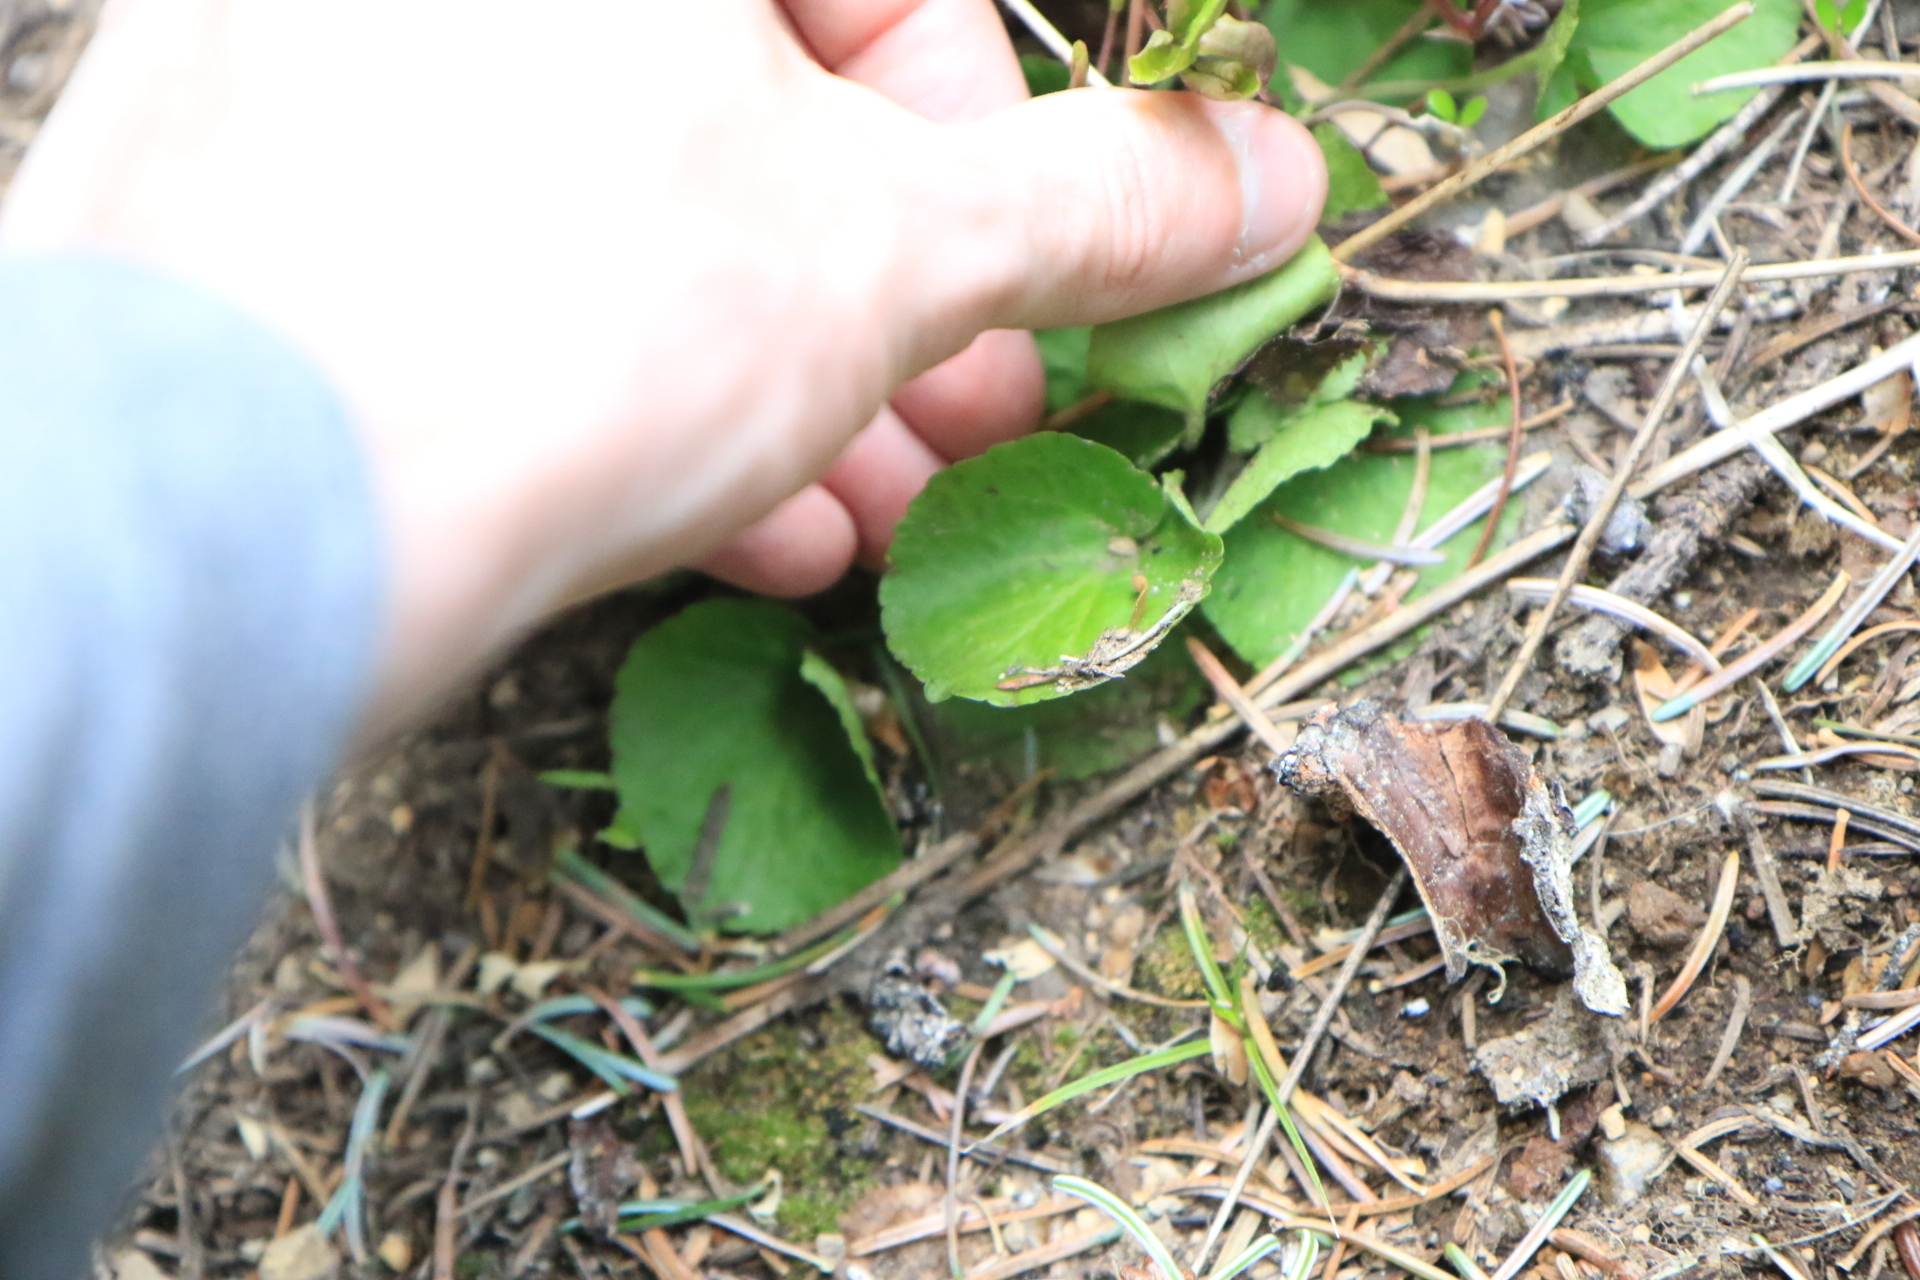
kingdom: Plantae
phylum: Tracheophyta
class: Magnoliopsida
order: Malpighiales
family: Violaceae
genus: Viola
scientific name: Viola orbiculata
